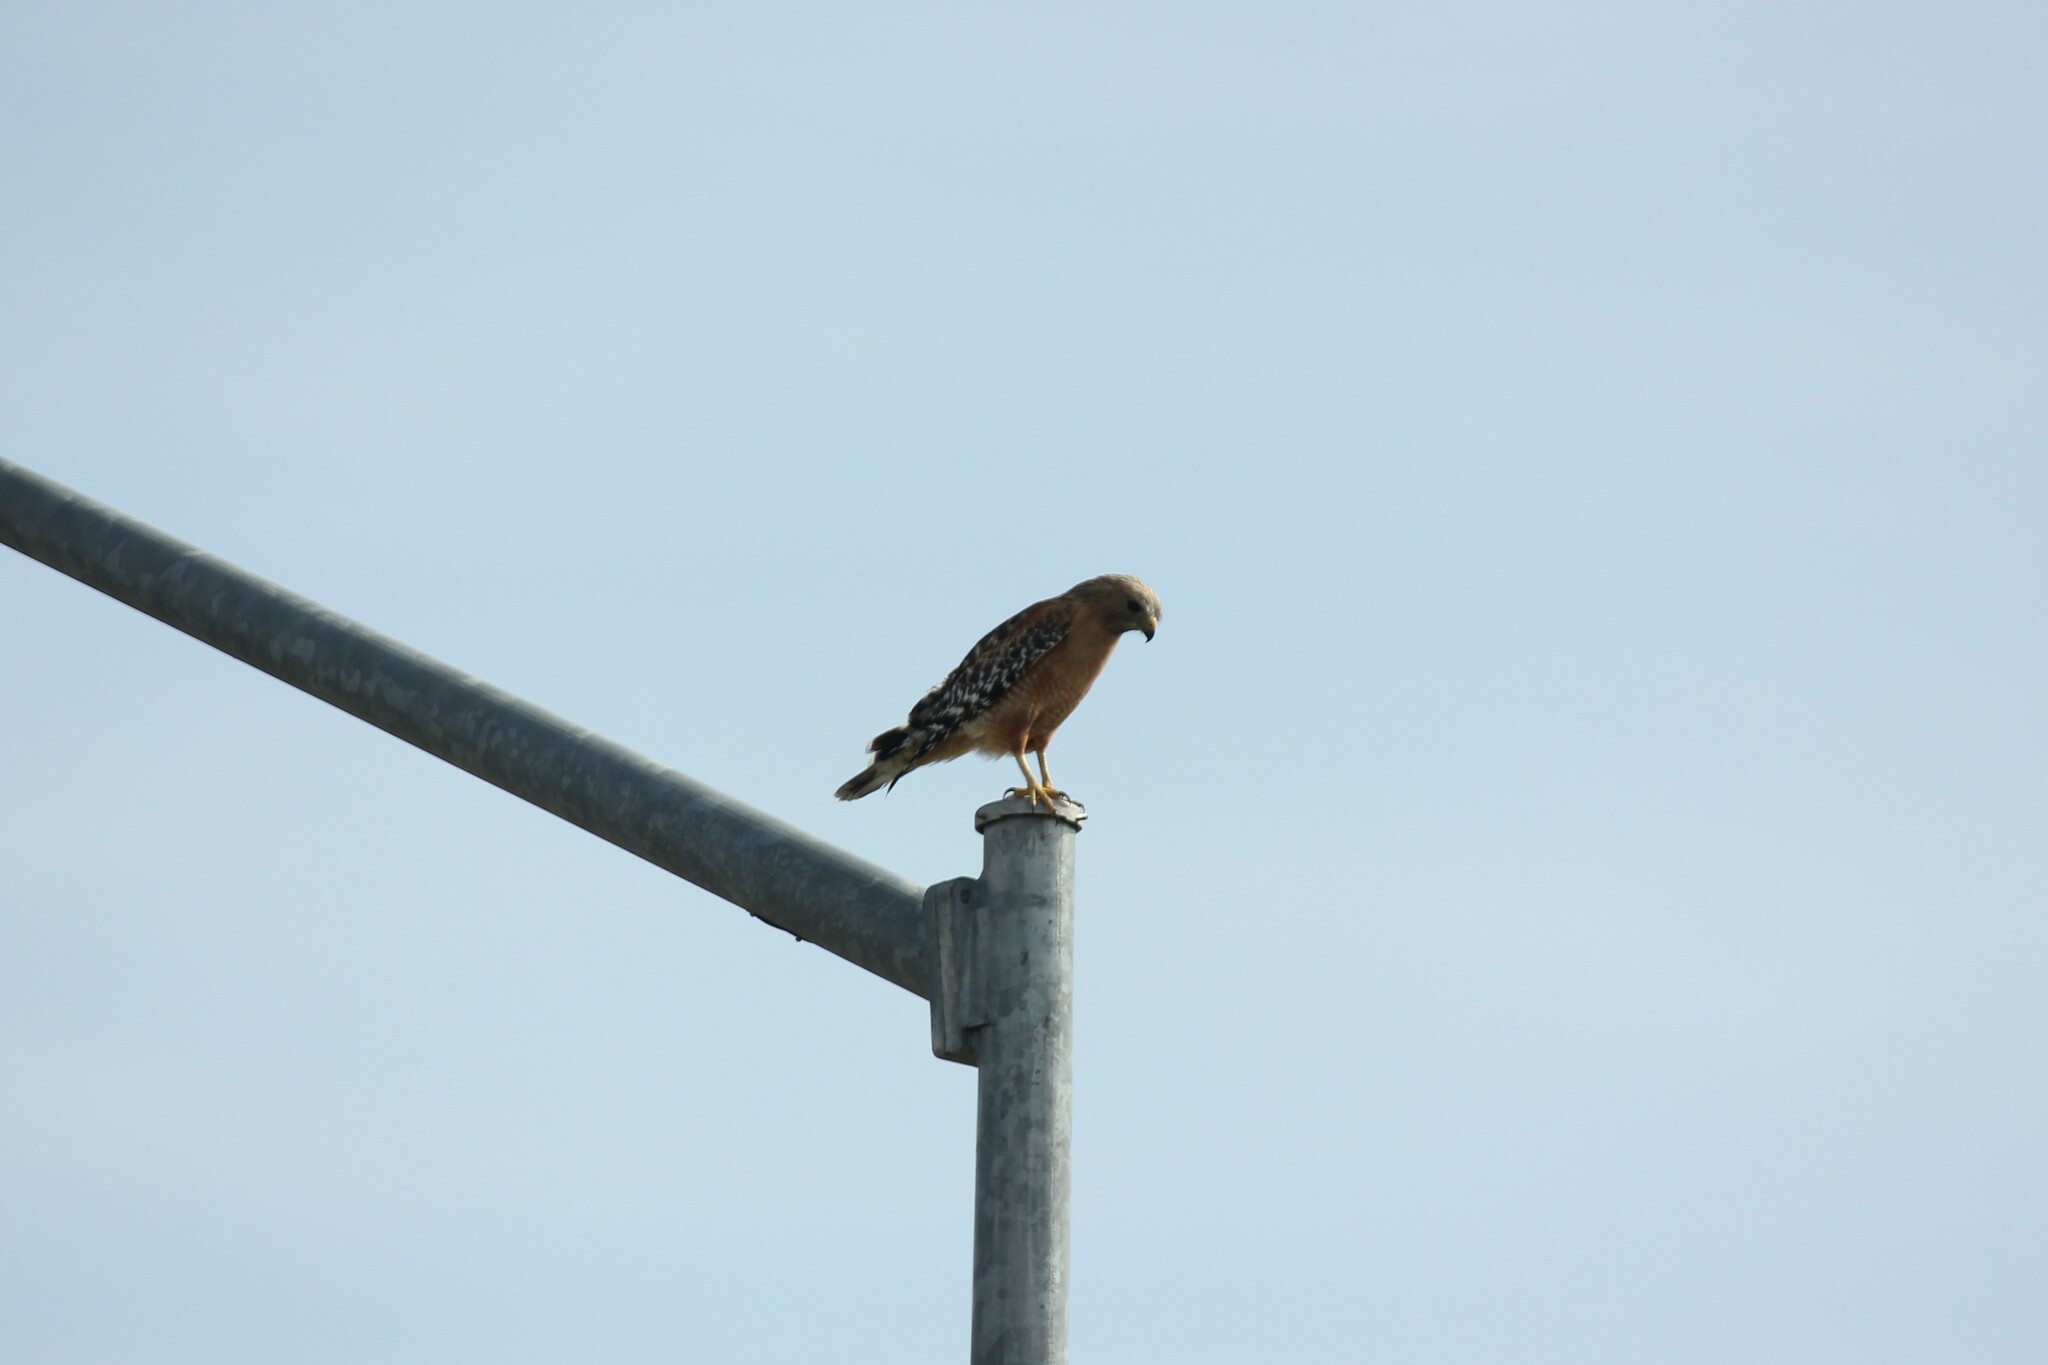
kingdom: Animalia
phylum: Chordata
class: Aves
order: Accipitriformes
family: Accipitridae
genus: Buteo
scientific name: Buteo lineatus
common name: Red-shouldered hawk
